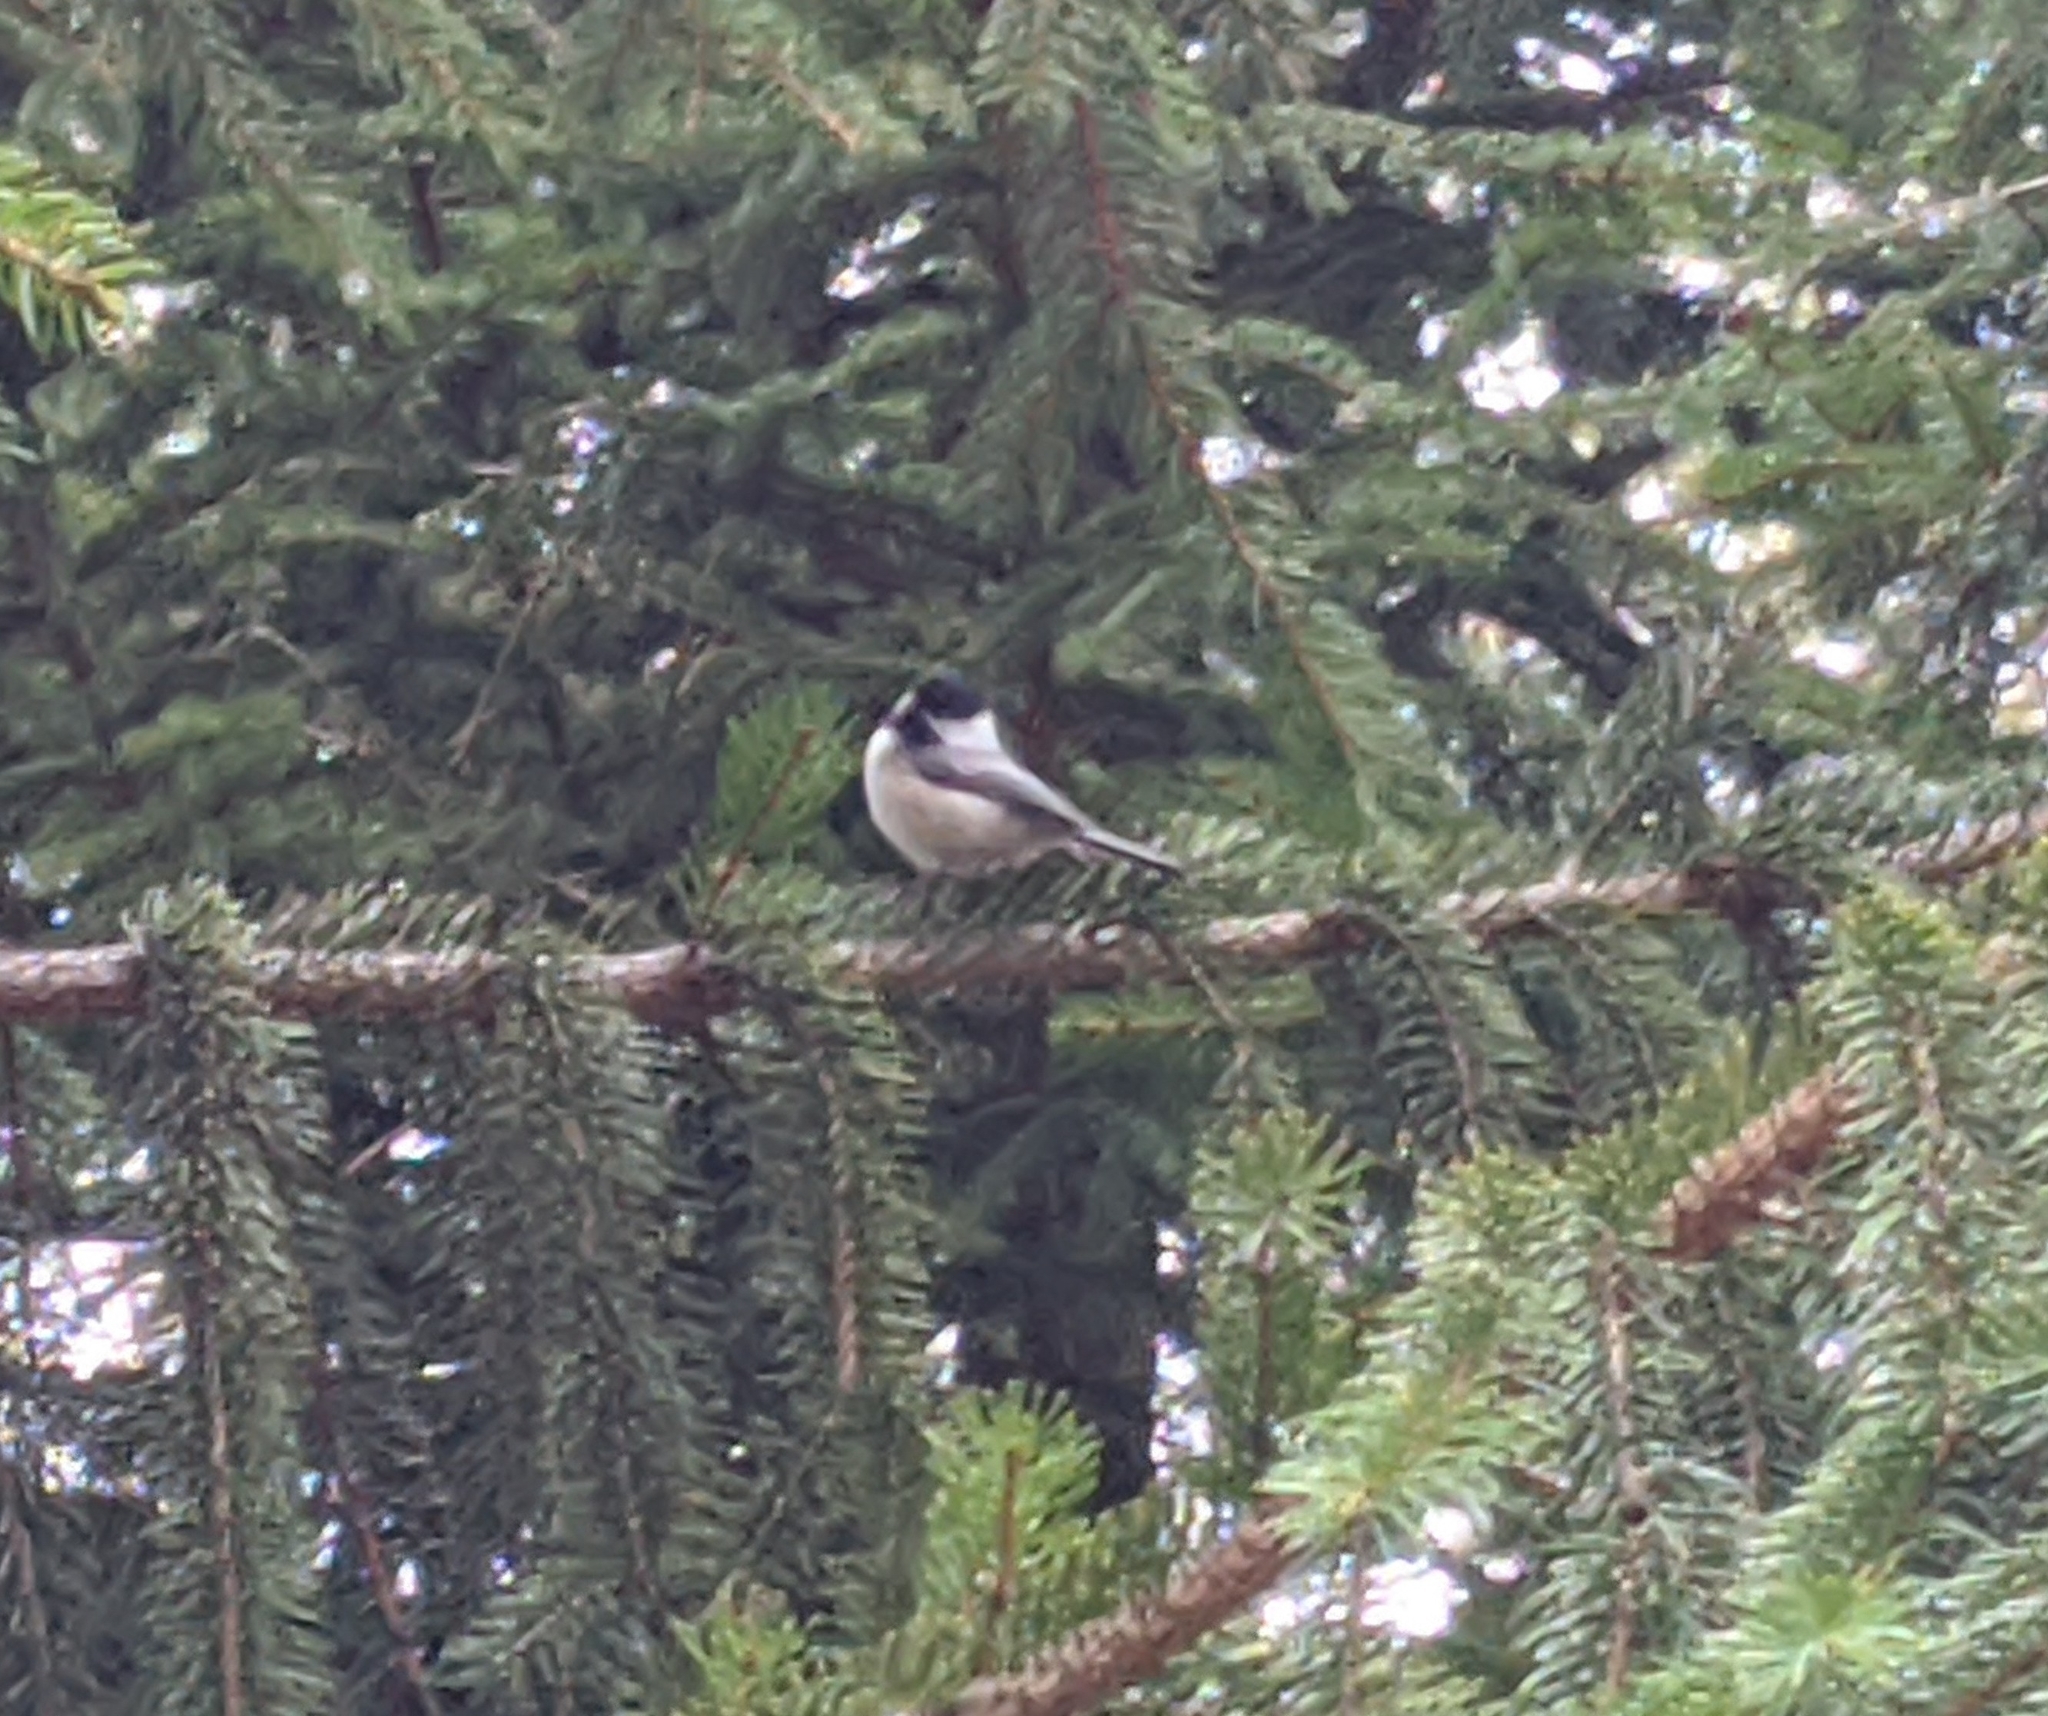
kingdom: Animalia
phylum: Chordata
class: Aves
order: Passeriformes
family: Paridae
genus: Poecile
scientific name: Poecile atricapillus
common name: Black-capped chickadee
